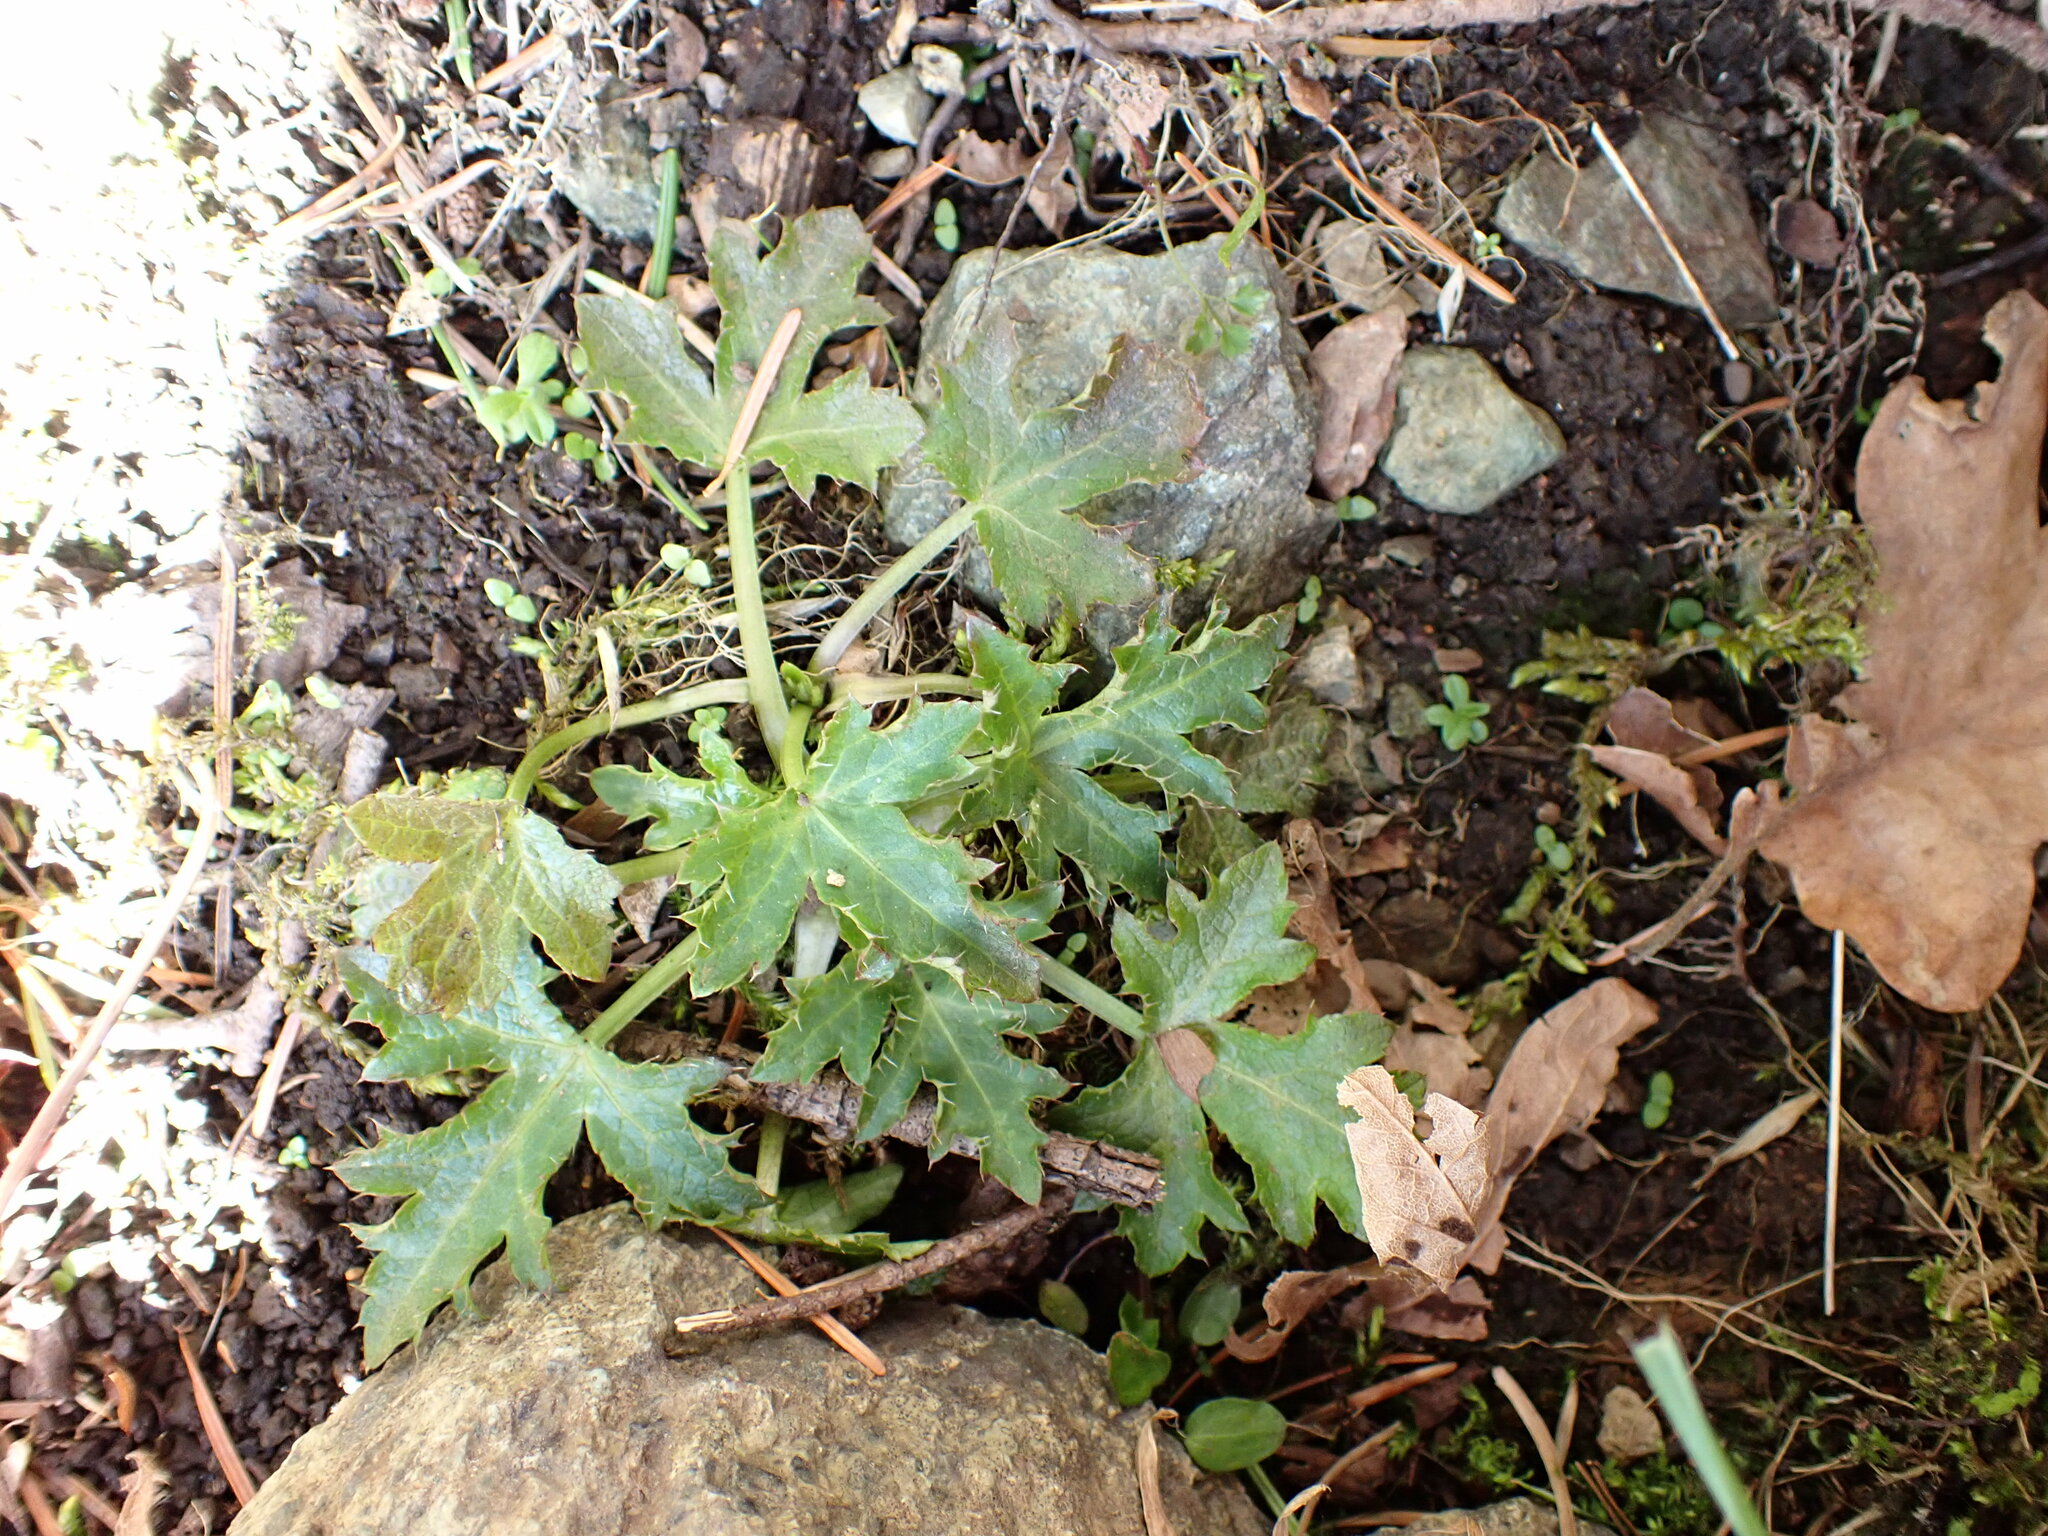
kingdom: Plantae
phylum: Tracheophyta
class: Magnoliopsida
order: Apiales
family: Apiaceae
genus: Sanicula
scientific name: Sanicula crassicaulis
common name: Western snakeroot
